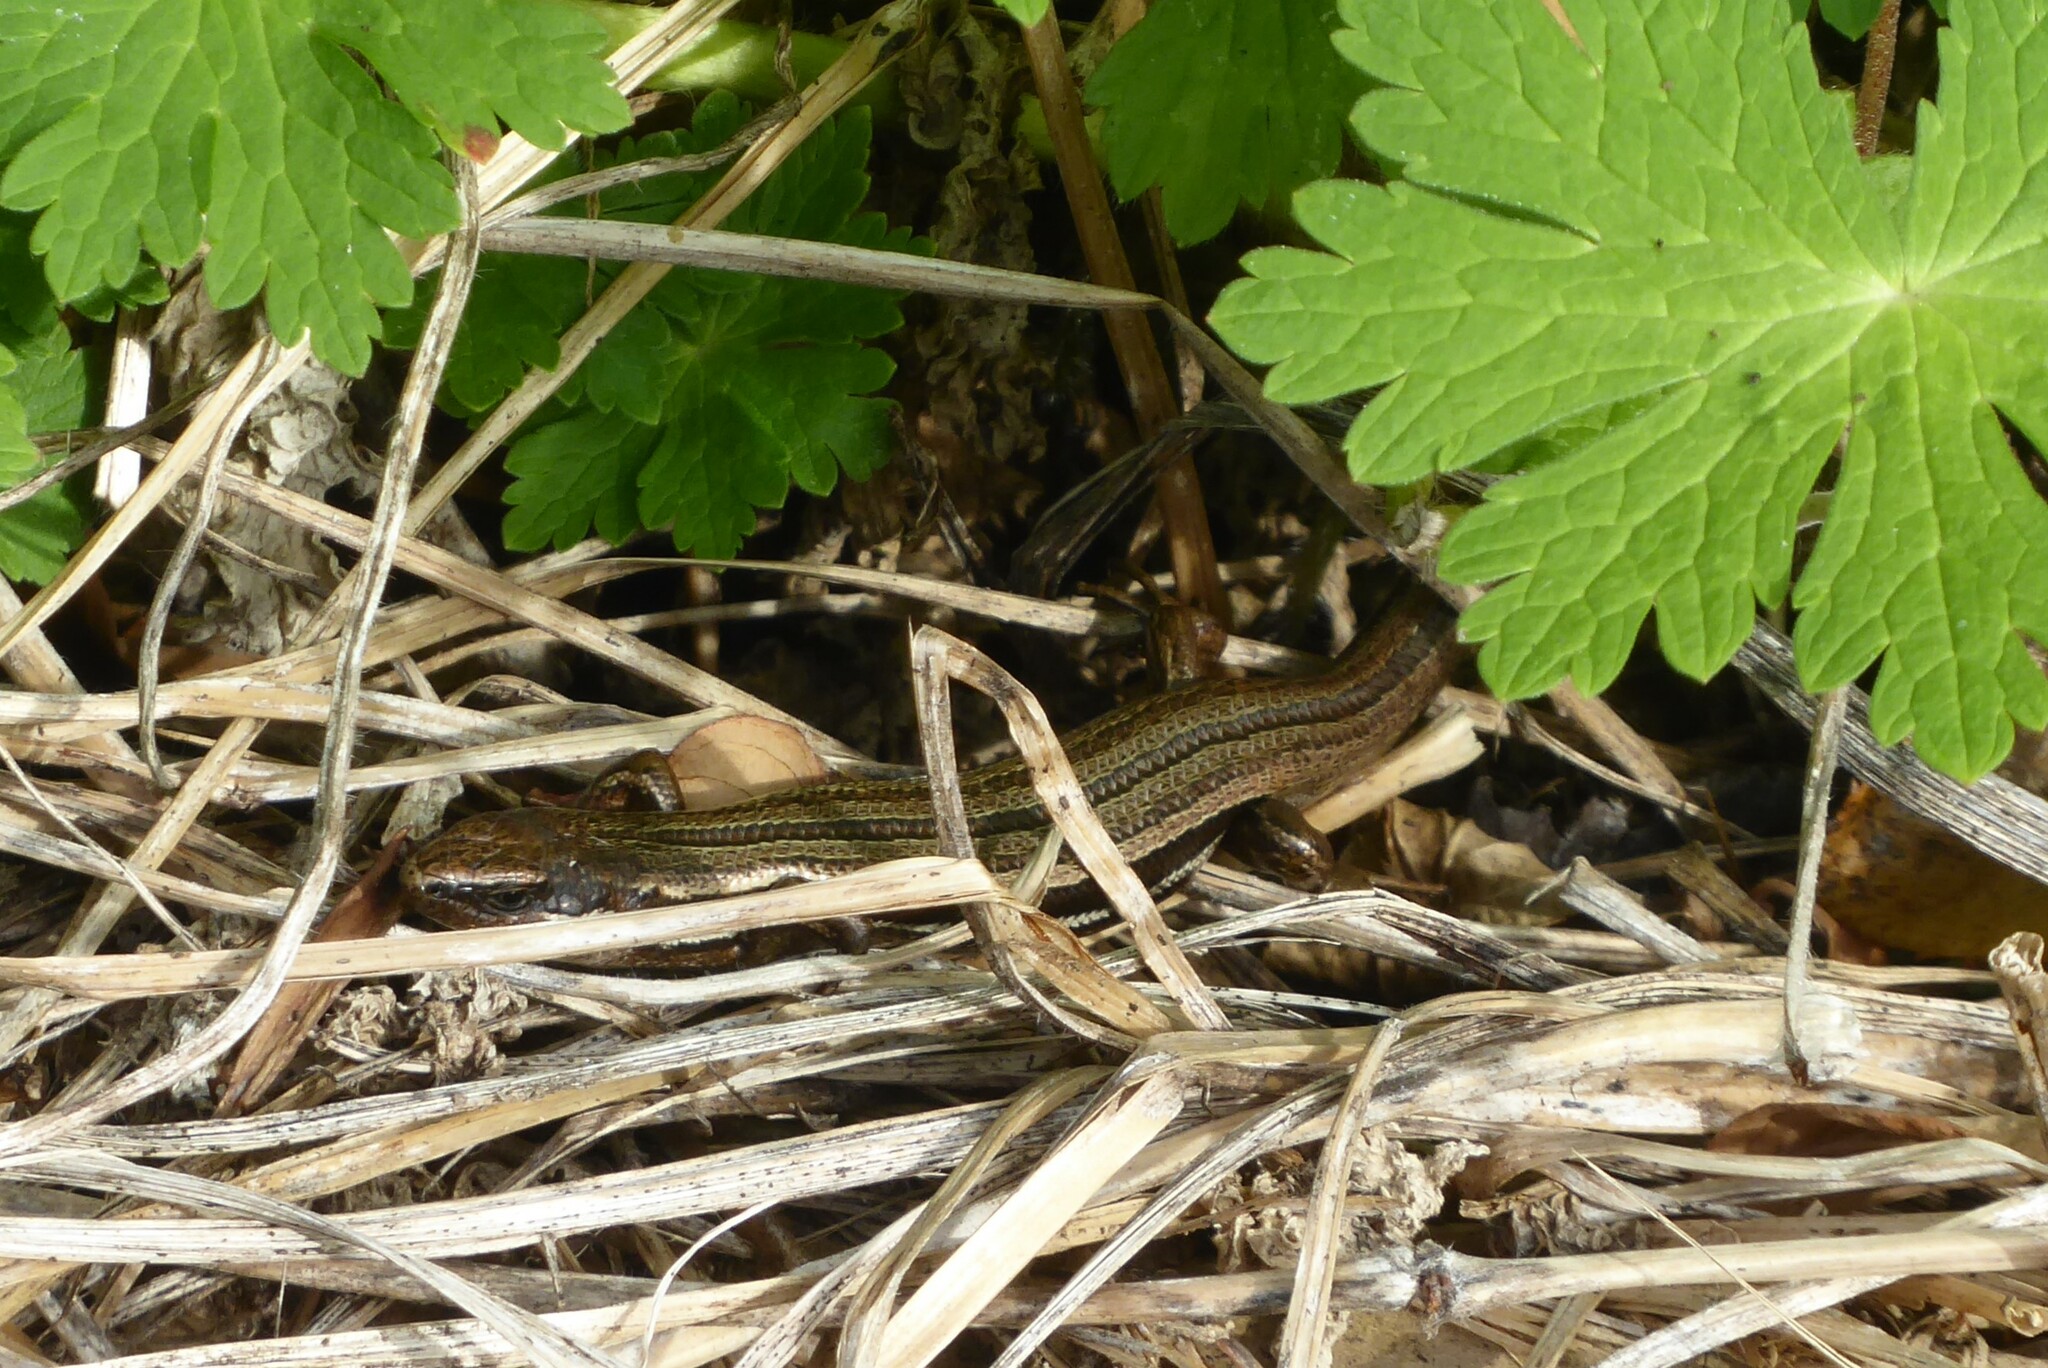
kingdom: Animalia
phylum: Chordata
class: Squamata
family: Scincidae
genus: Oligosoma
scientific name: Oligosoma polychroma
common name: Common new zealand skink
